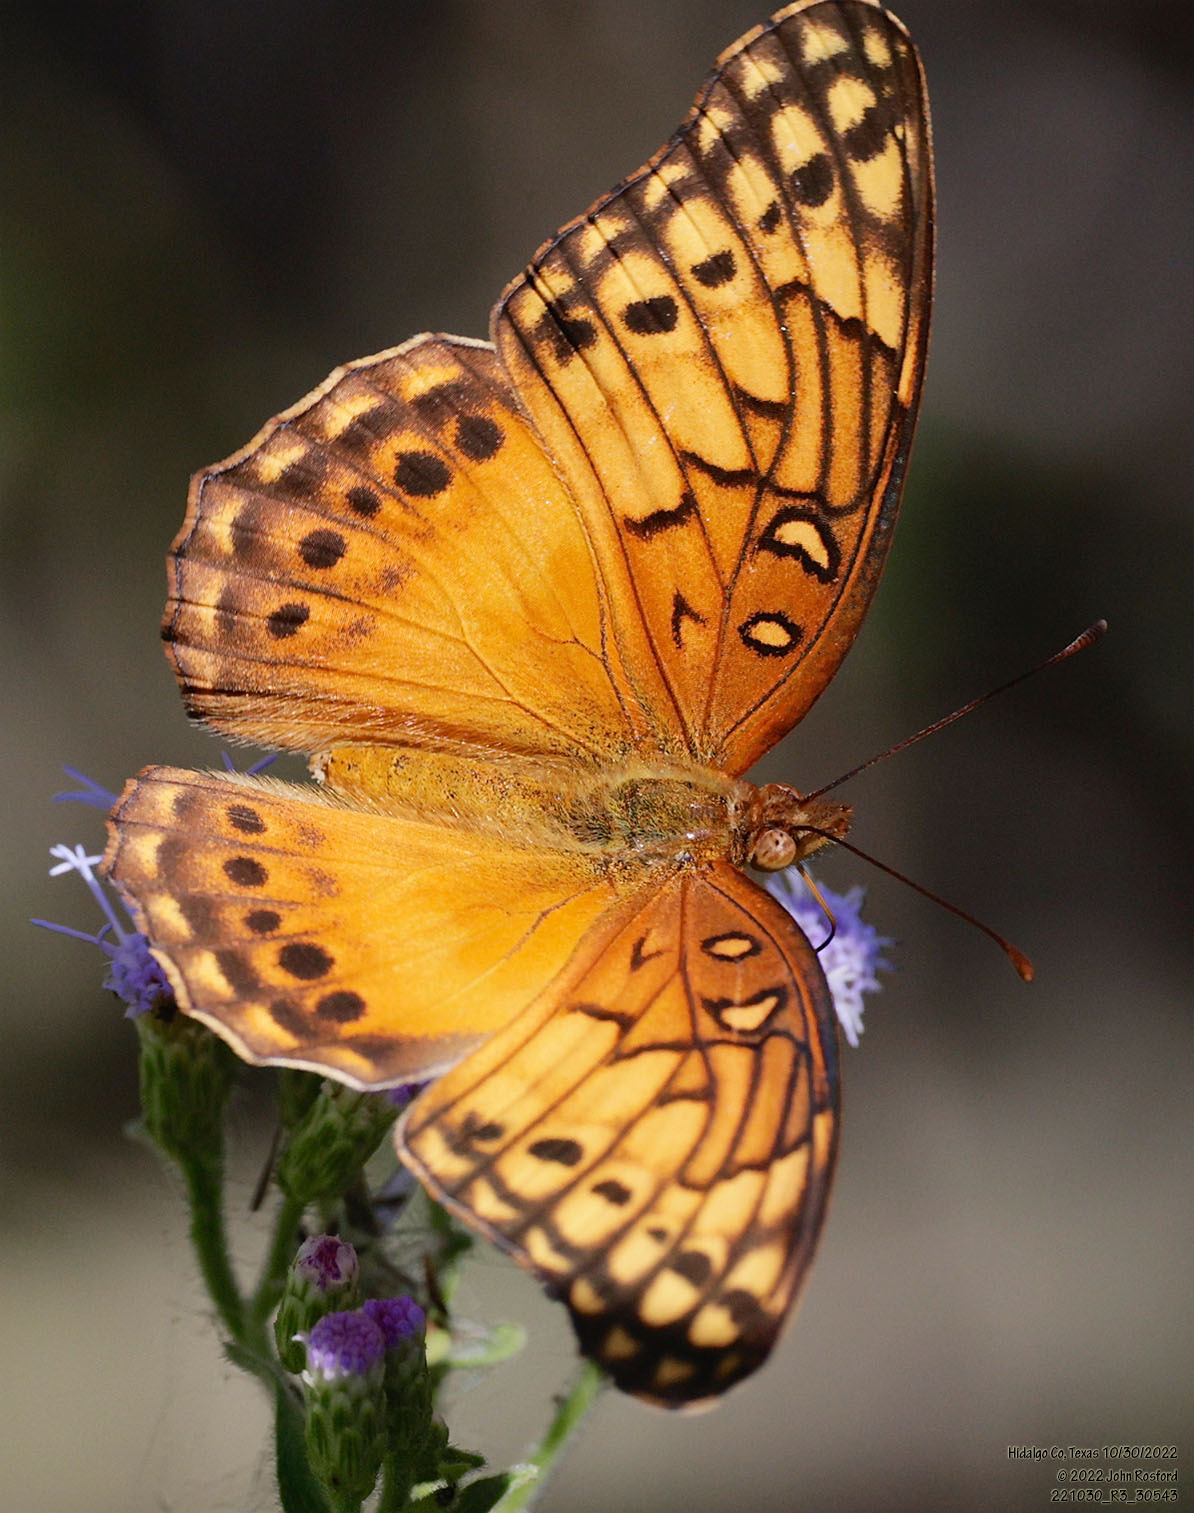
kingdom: Animalia
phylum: Arthropoda
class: Insecta
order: Lepidoptera
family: Nymphalidae
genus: Euptoieta
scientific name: Euptoieta hegesia
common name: Mexican fritillary
